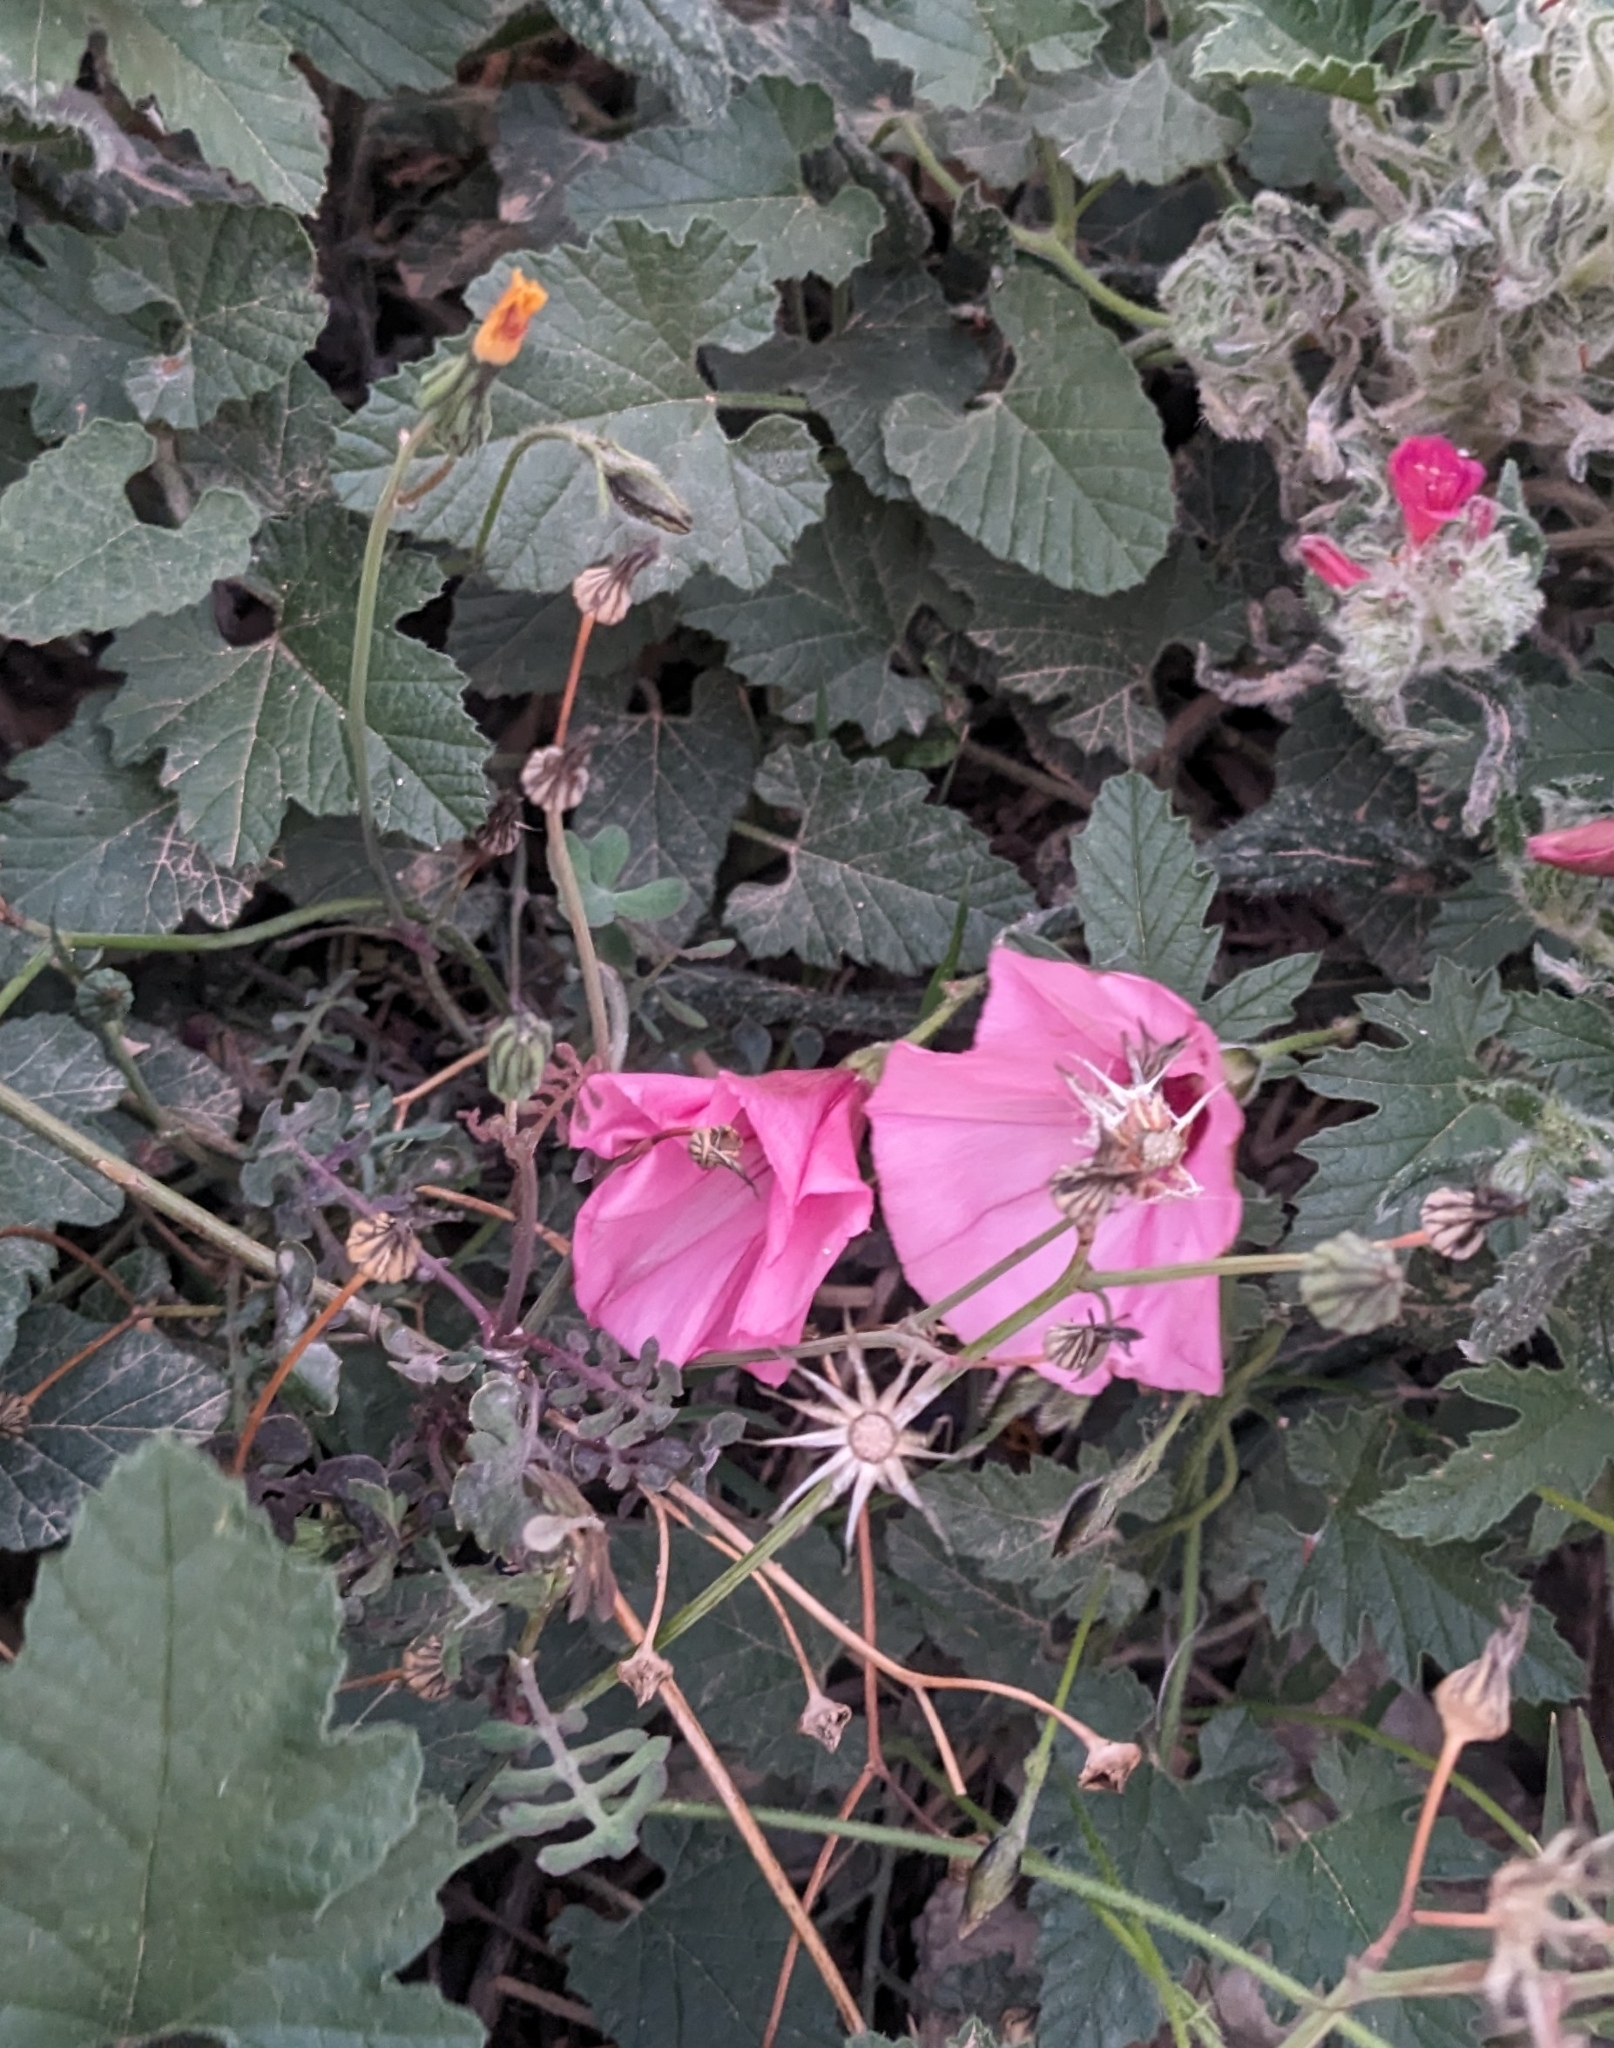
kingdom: Plantae
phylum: Tracheophyta
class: Magnoliopsida
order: Solanales
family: Convolvulaceae
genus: Convolvulus
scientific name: Convolvulus althaeoides
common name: Mallow bindweed
